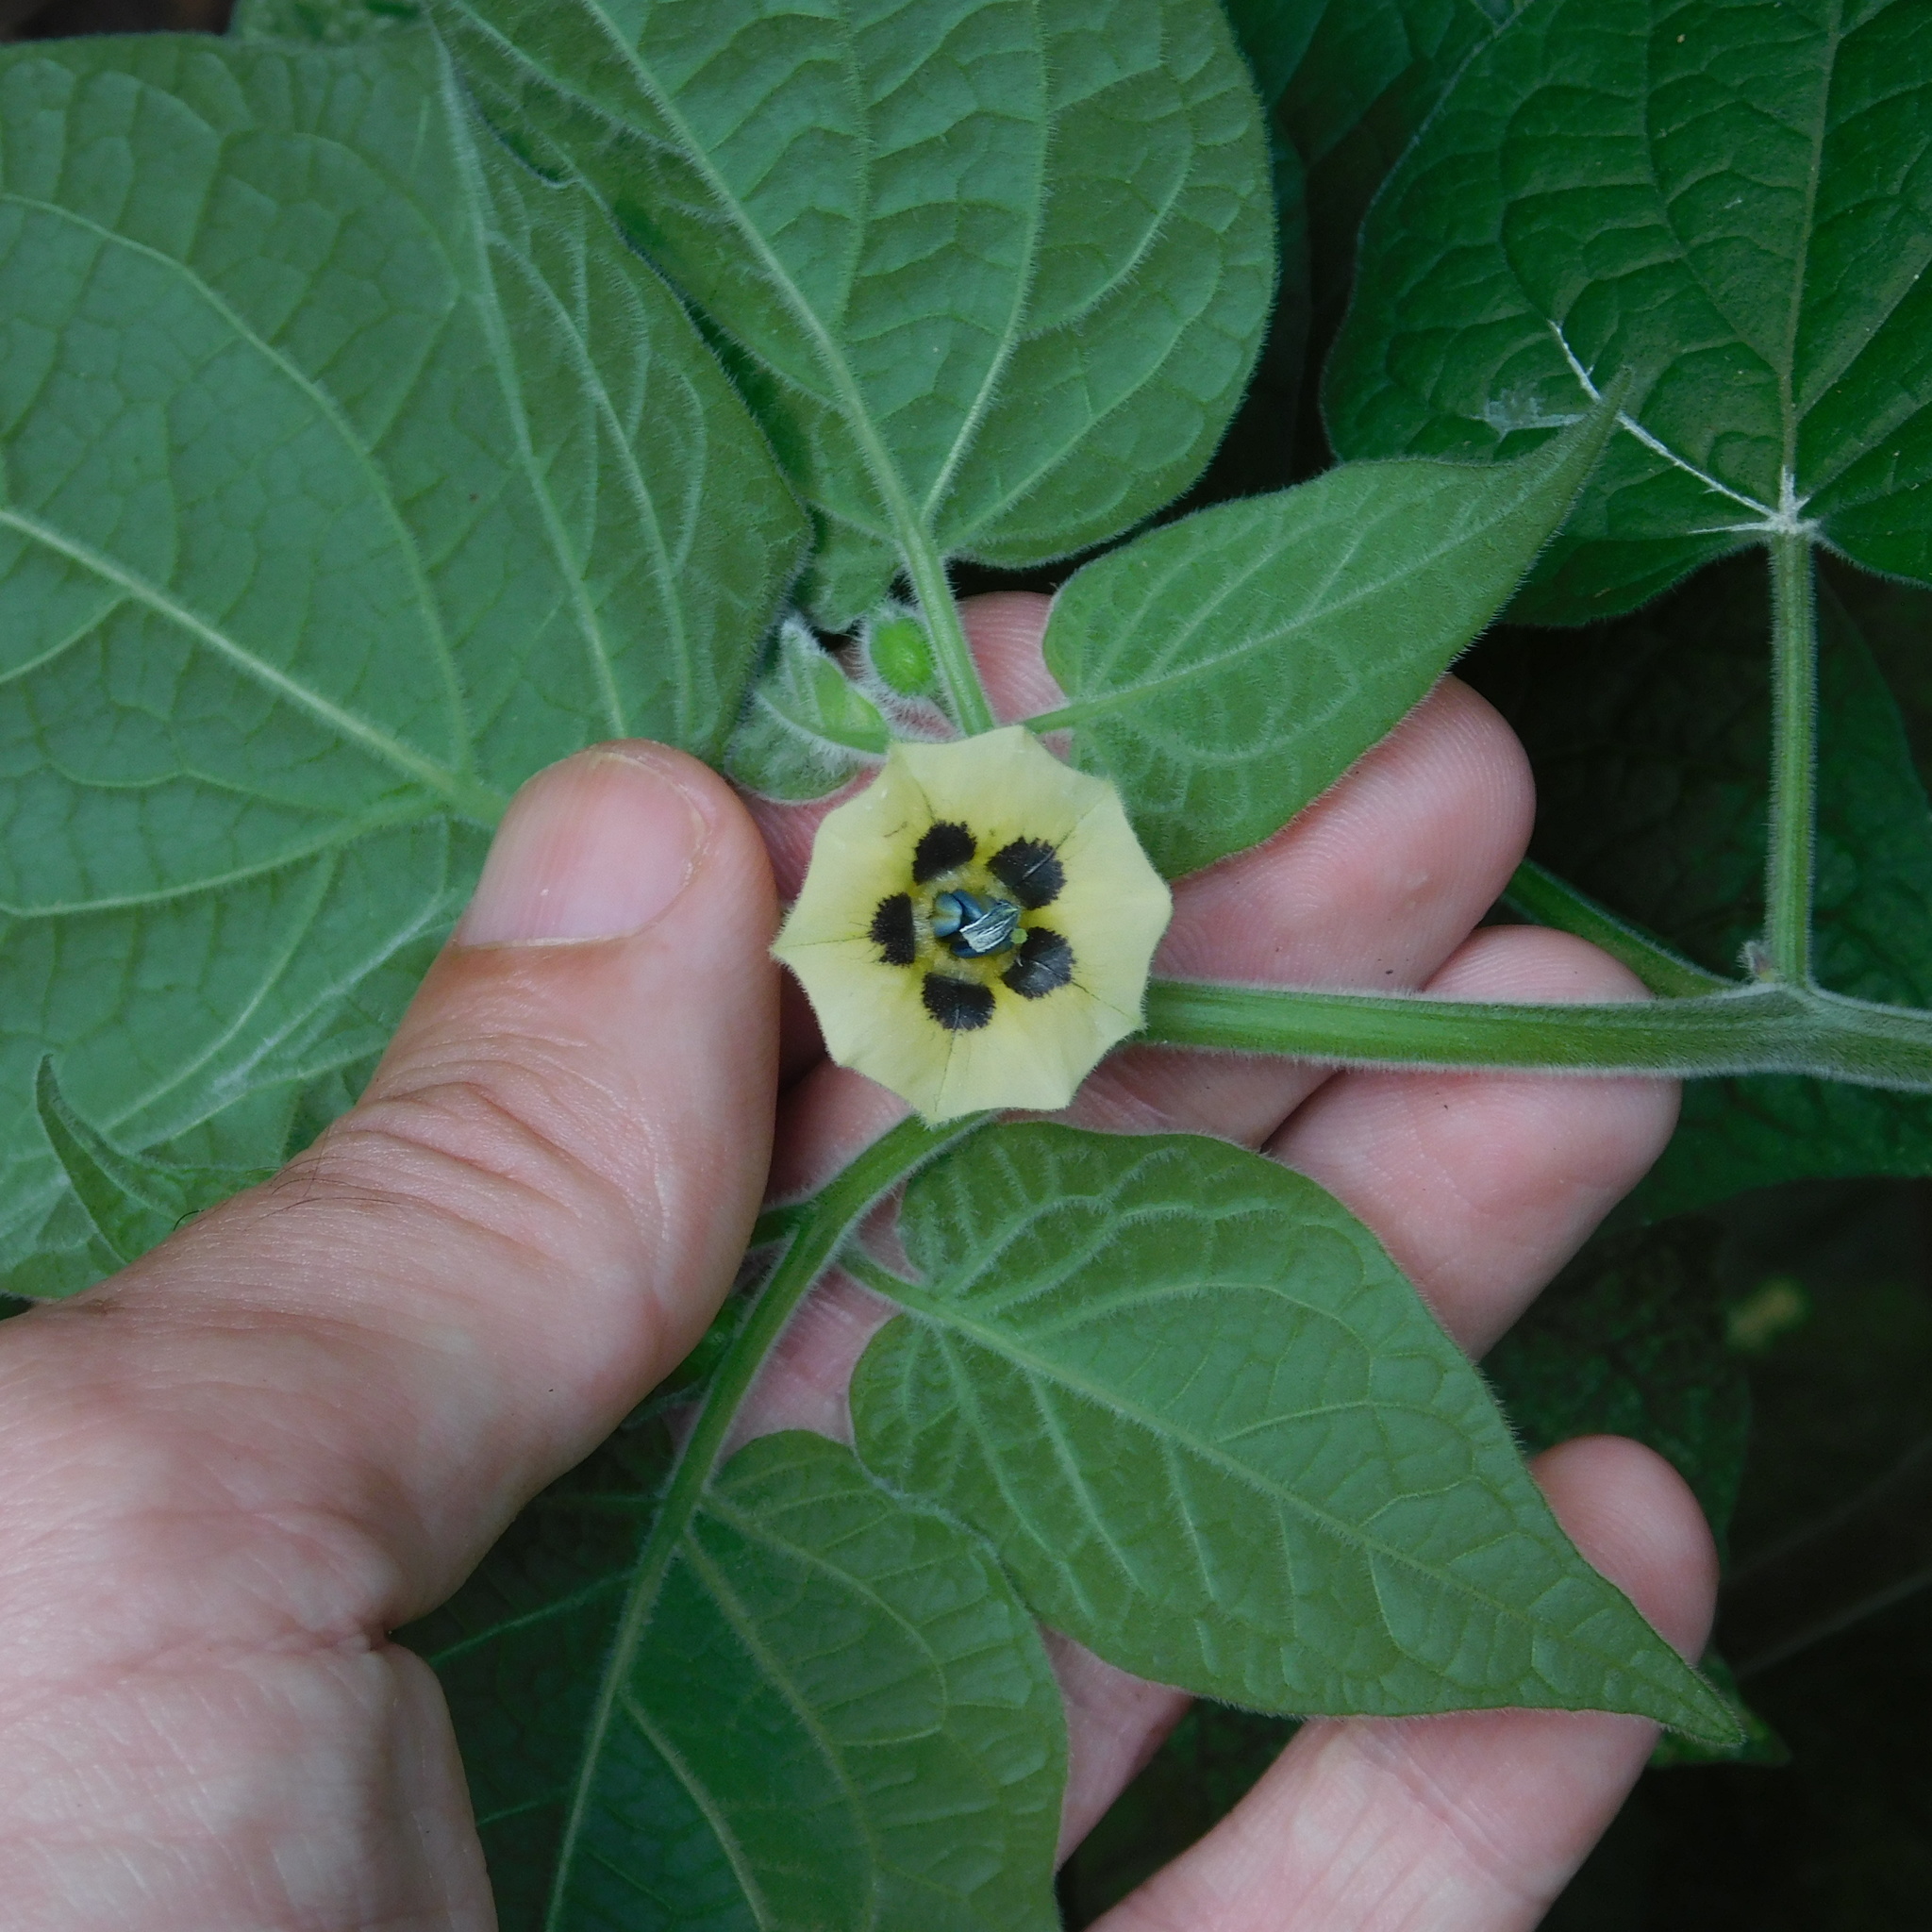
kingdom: Plantae
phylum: Tracheophyta
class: Magnoliopsida
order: Solanales
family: Solanaceae
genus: Physalis
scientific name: Physalis peruviana
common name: Cape-gooseberry
